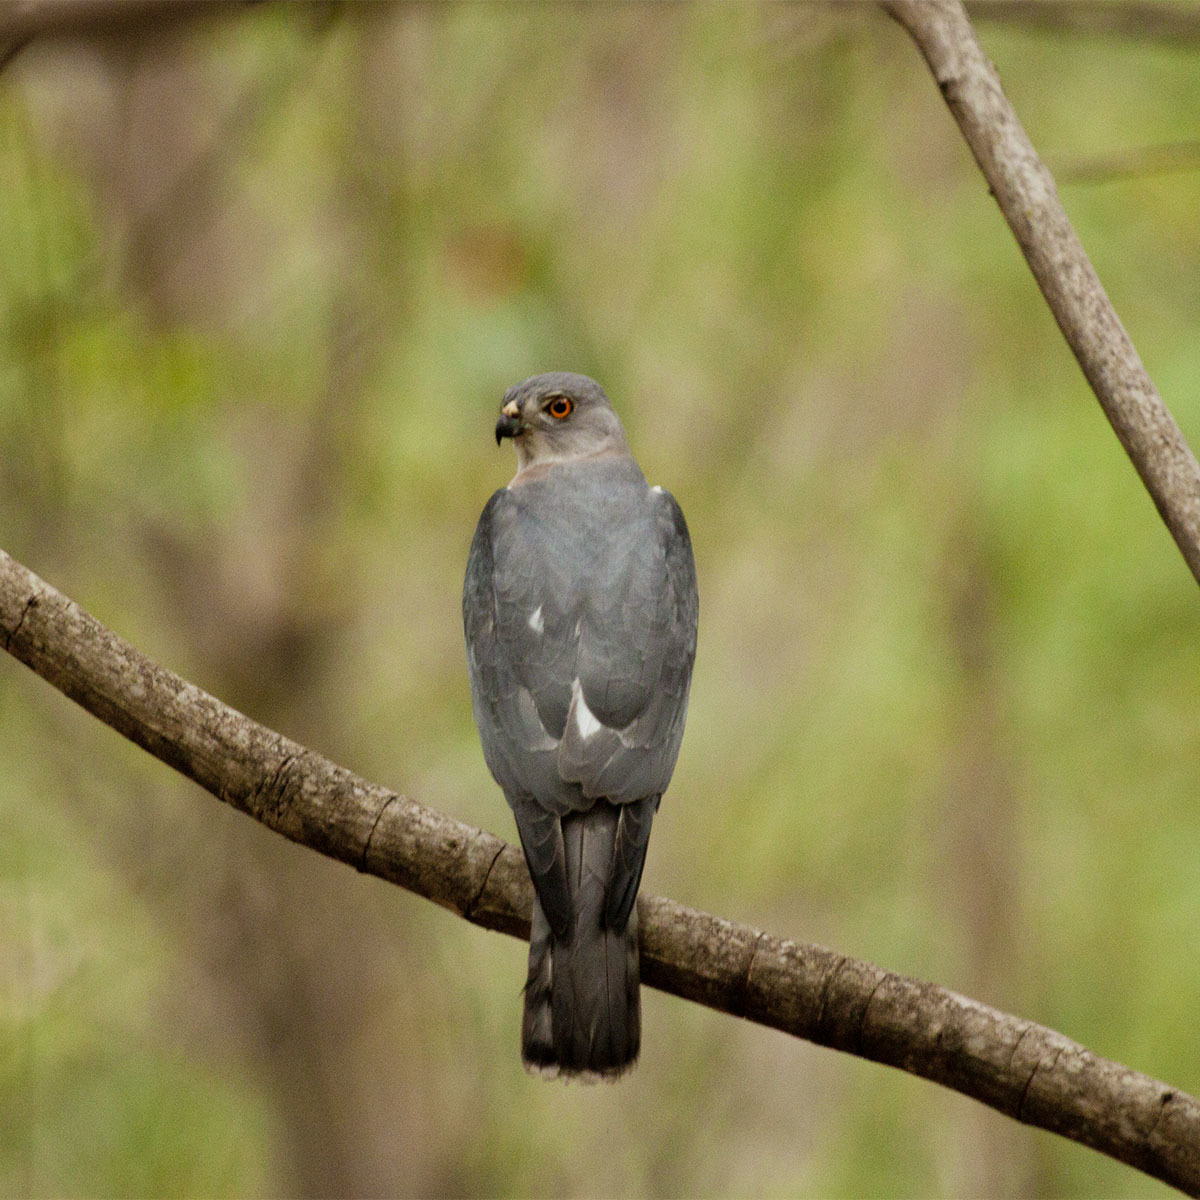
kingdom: Animalia
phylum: Chordata
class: Aves
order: Accipitriformes
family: Accipitridae
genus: Accipiter
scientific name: Accipiter badius
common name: Shikra
